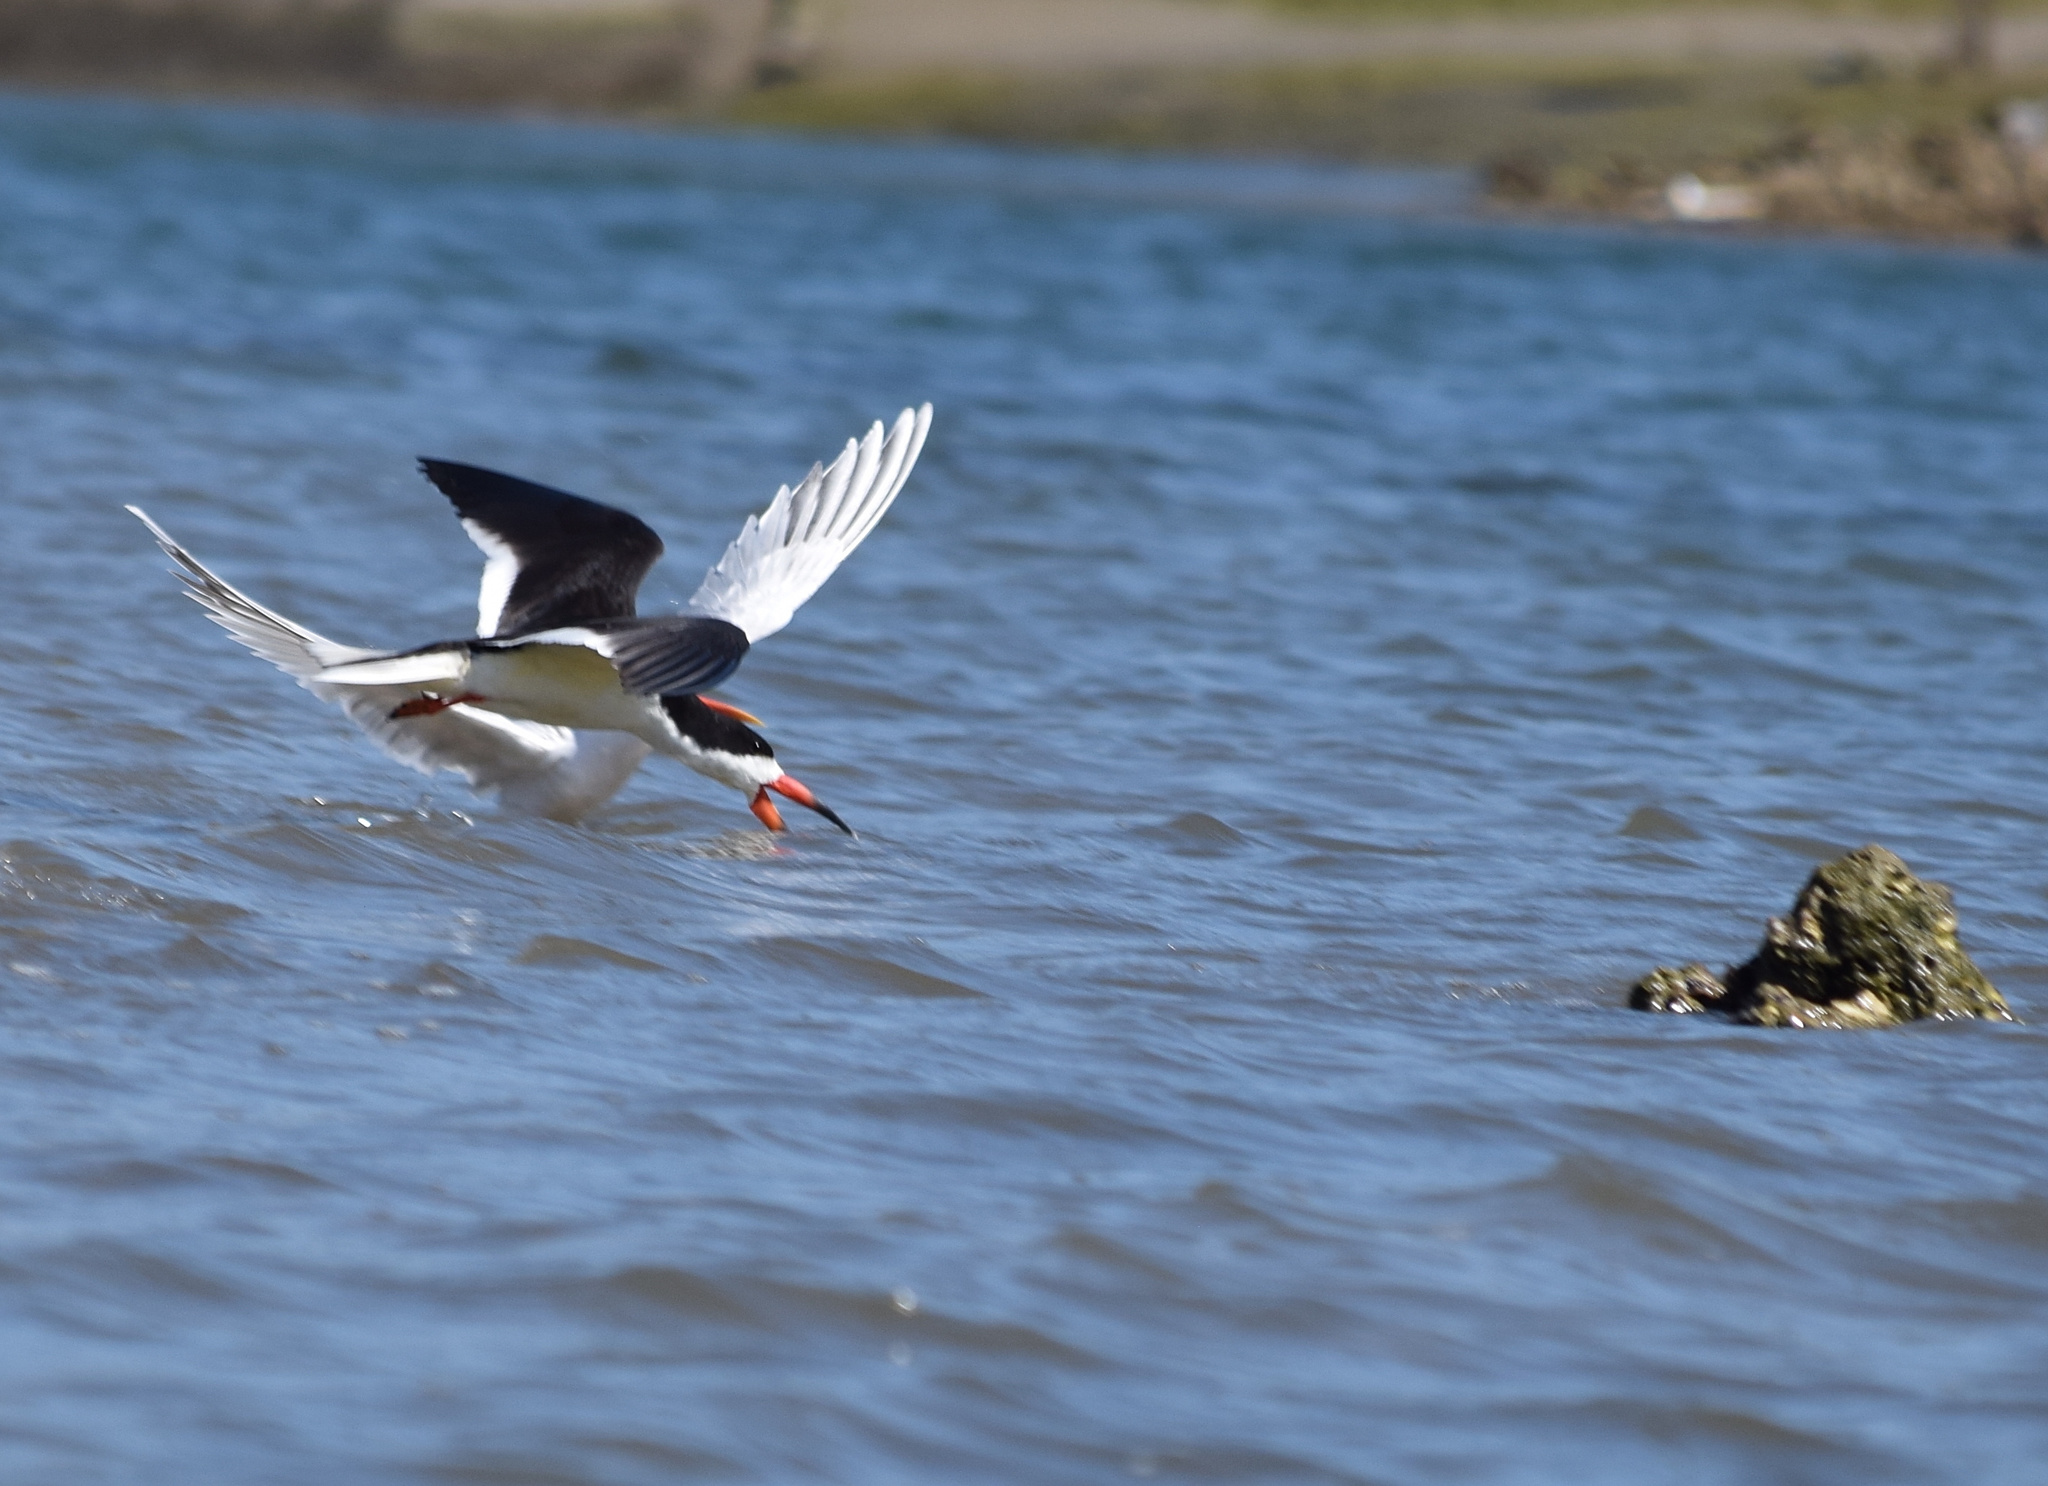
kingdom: Animalia
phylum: Chordata
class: Aves
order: Charadriiformes
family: Laridae
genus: Rynchops
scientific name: Rynchops niger
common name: Black skimmer
